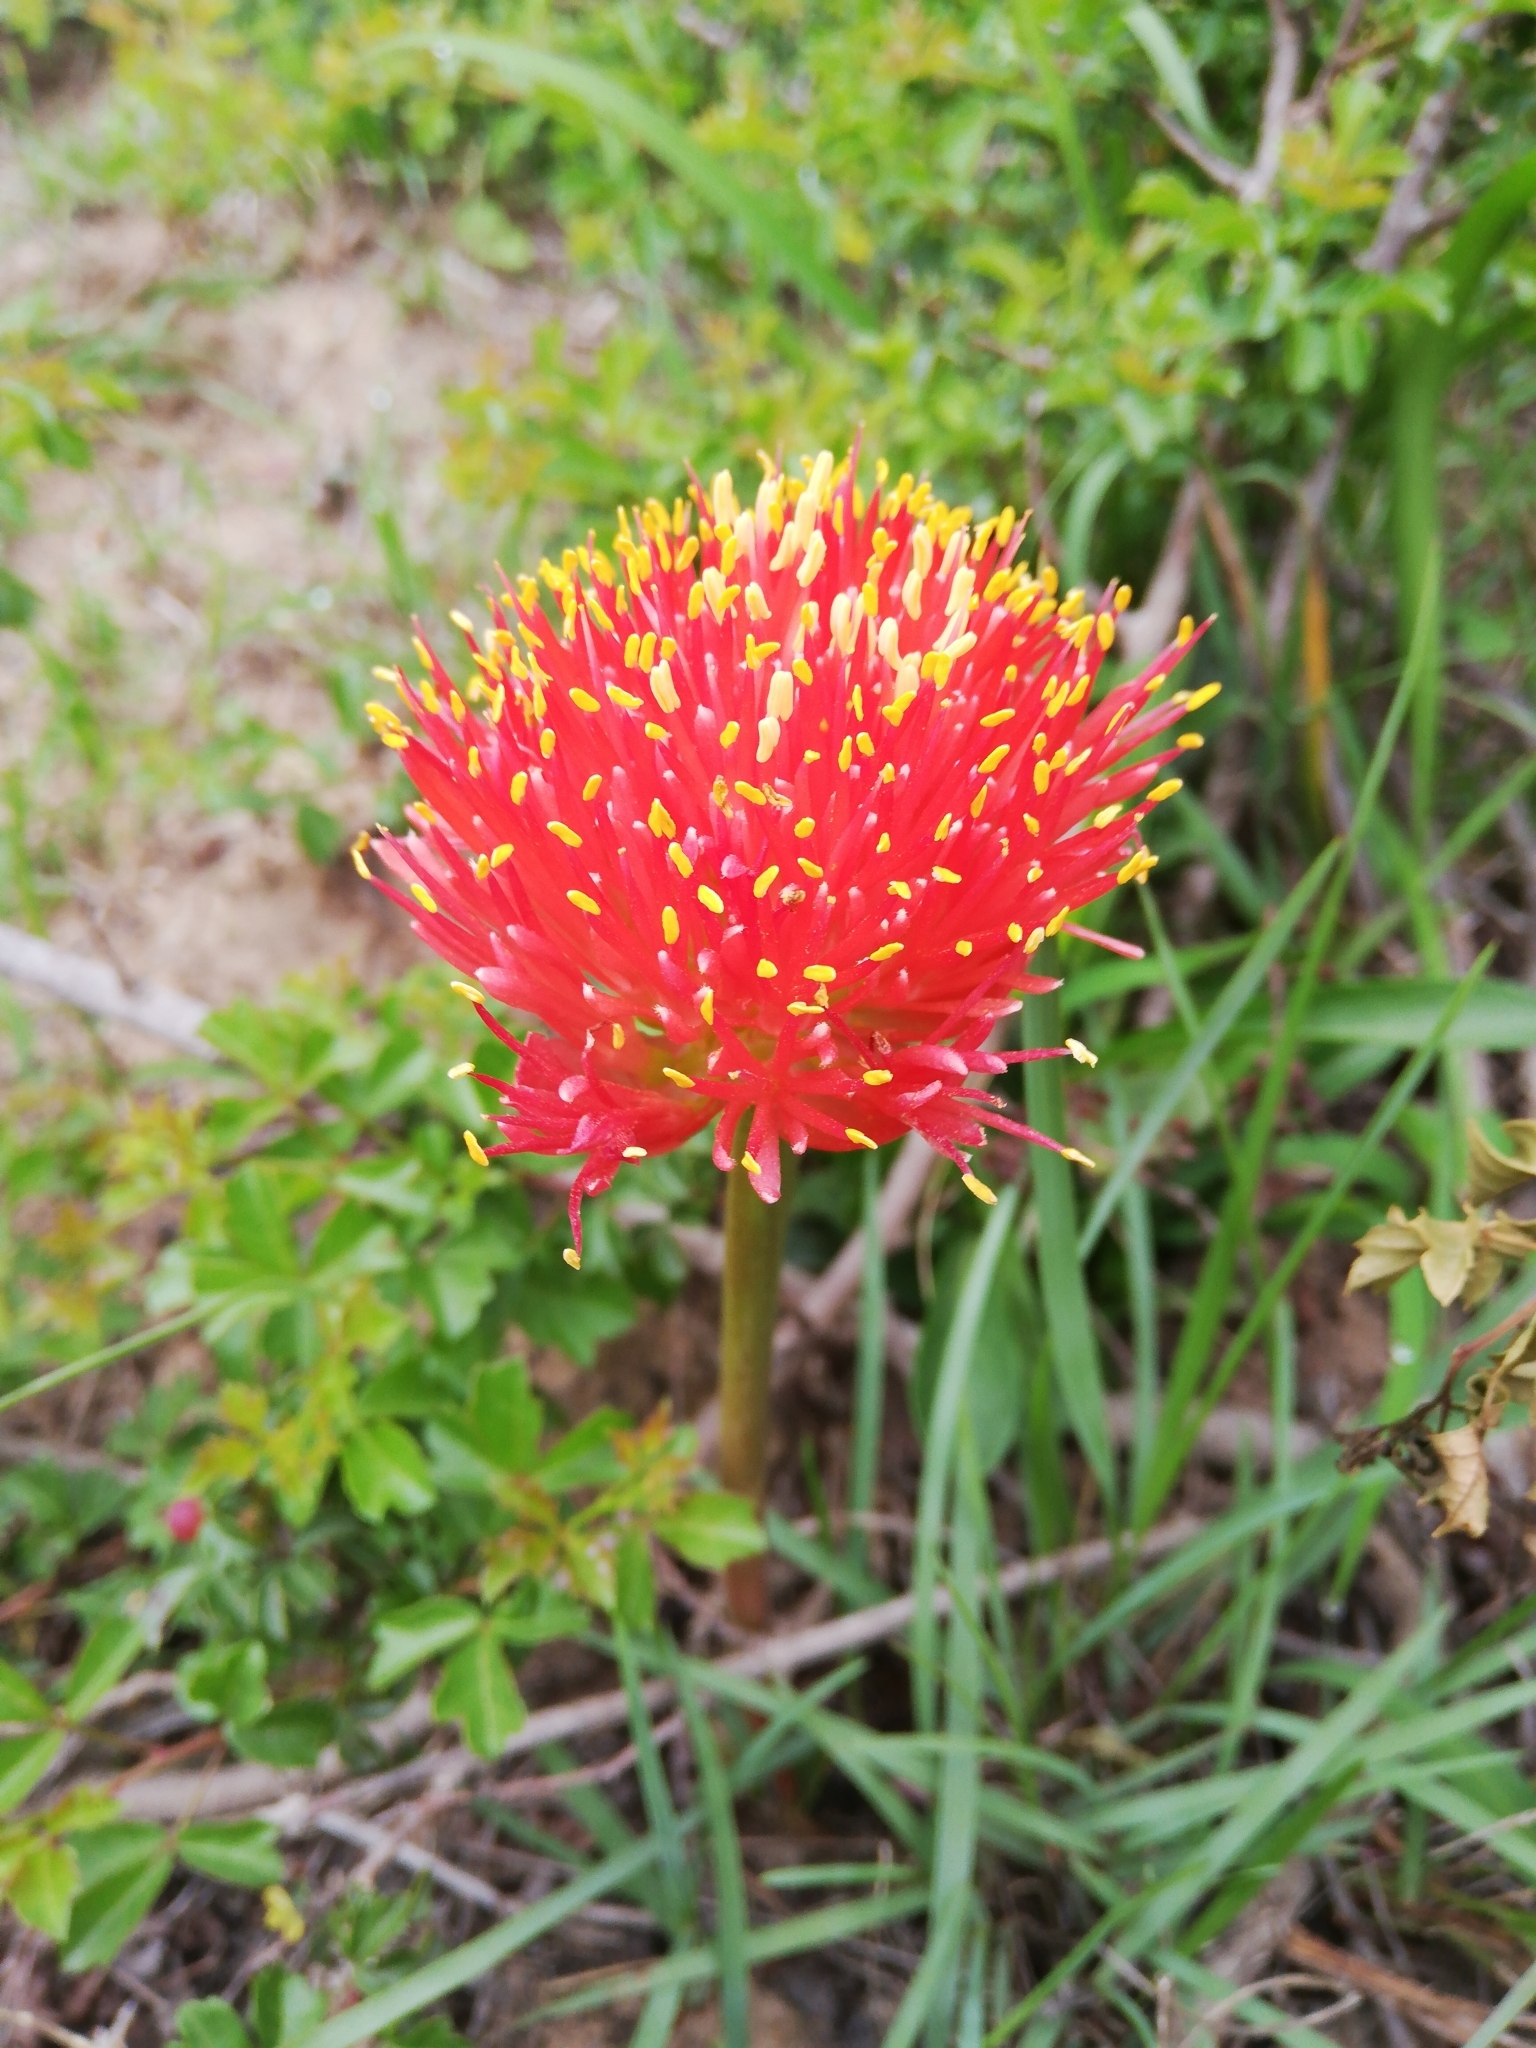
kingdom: Plantae
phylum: Tracheophyta
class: Liliopsida
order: Asparagales
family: Amaryllidaceae
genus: Haemanthus
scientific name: Haemanthus sanguineus
